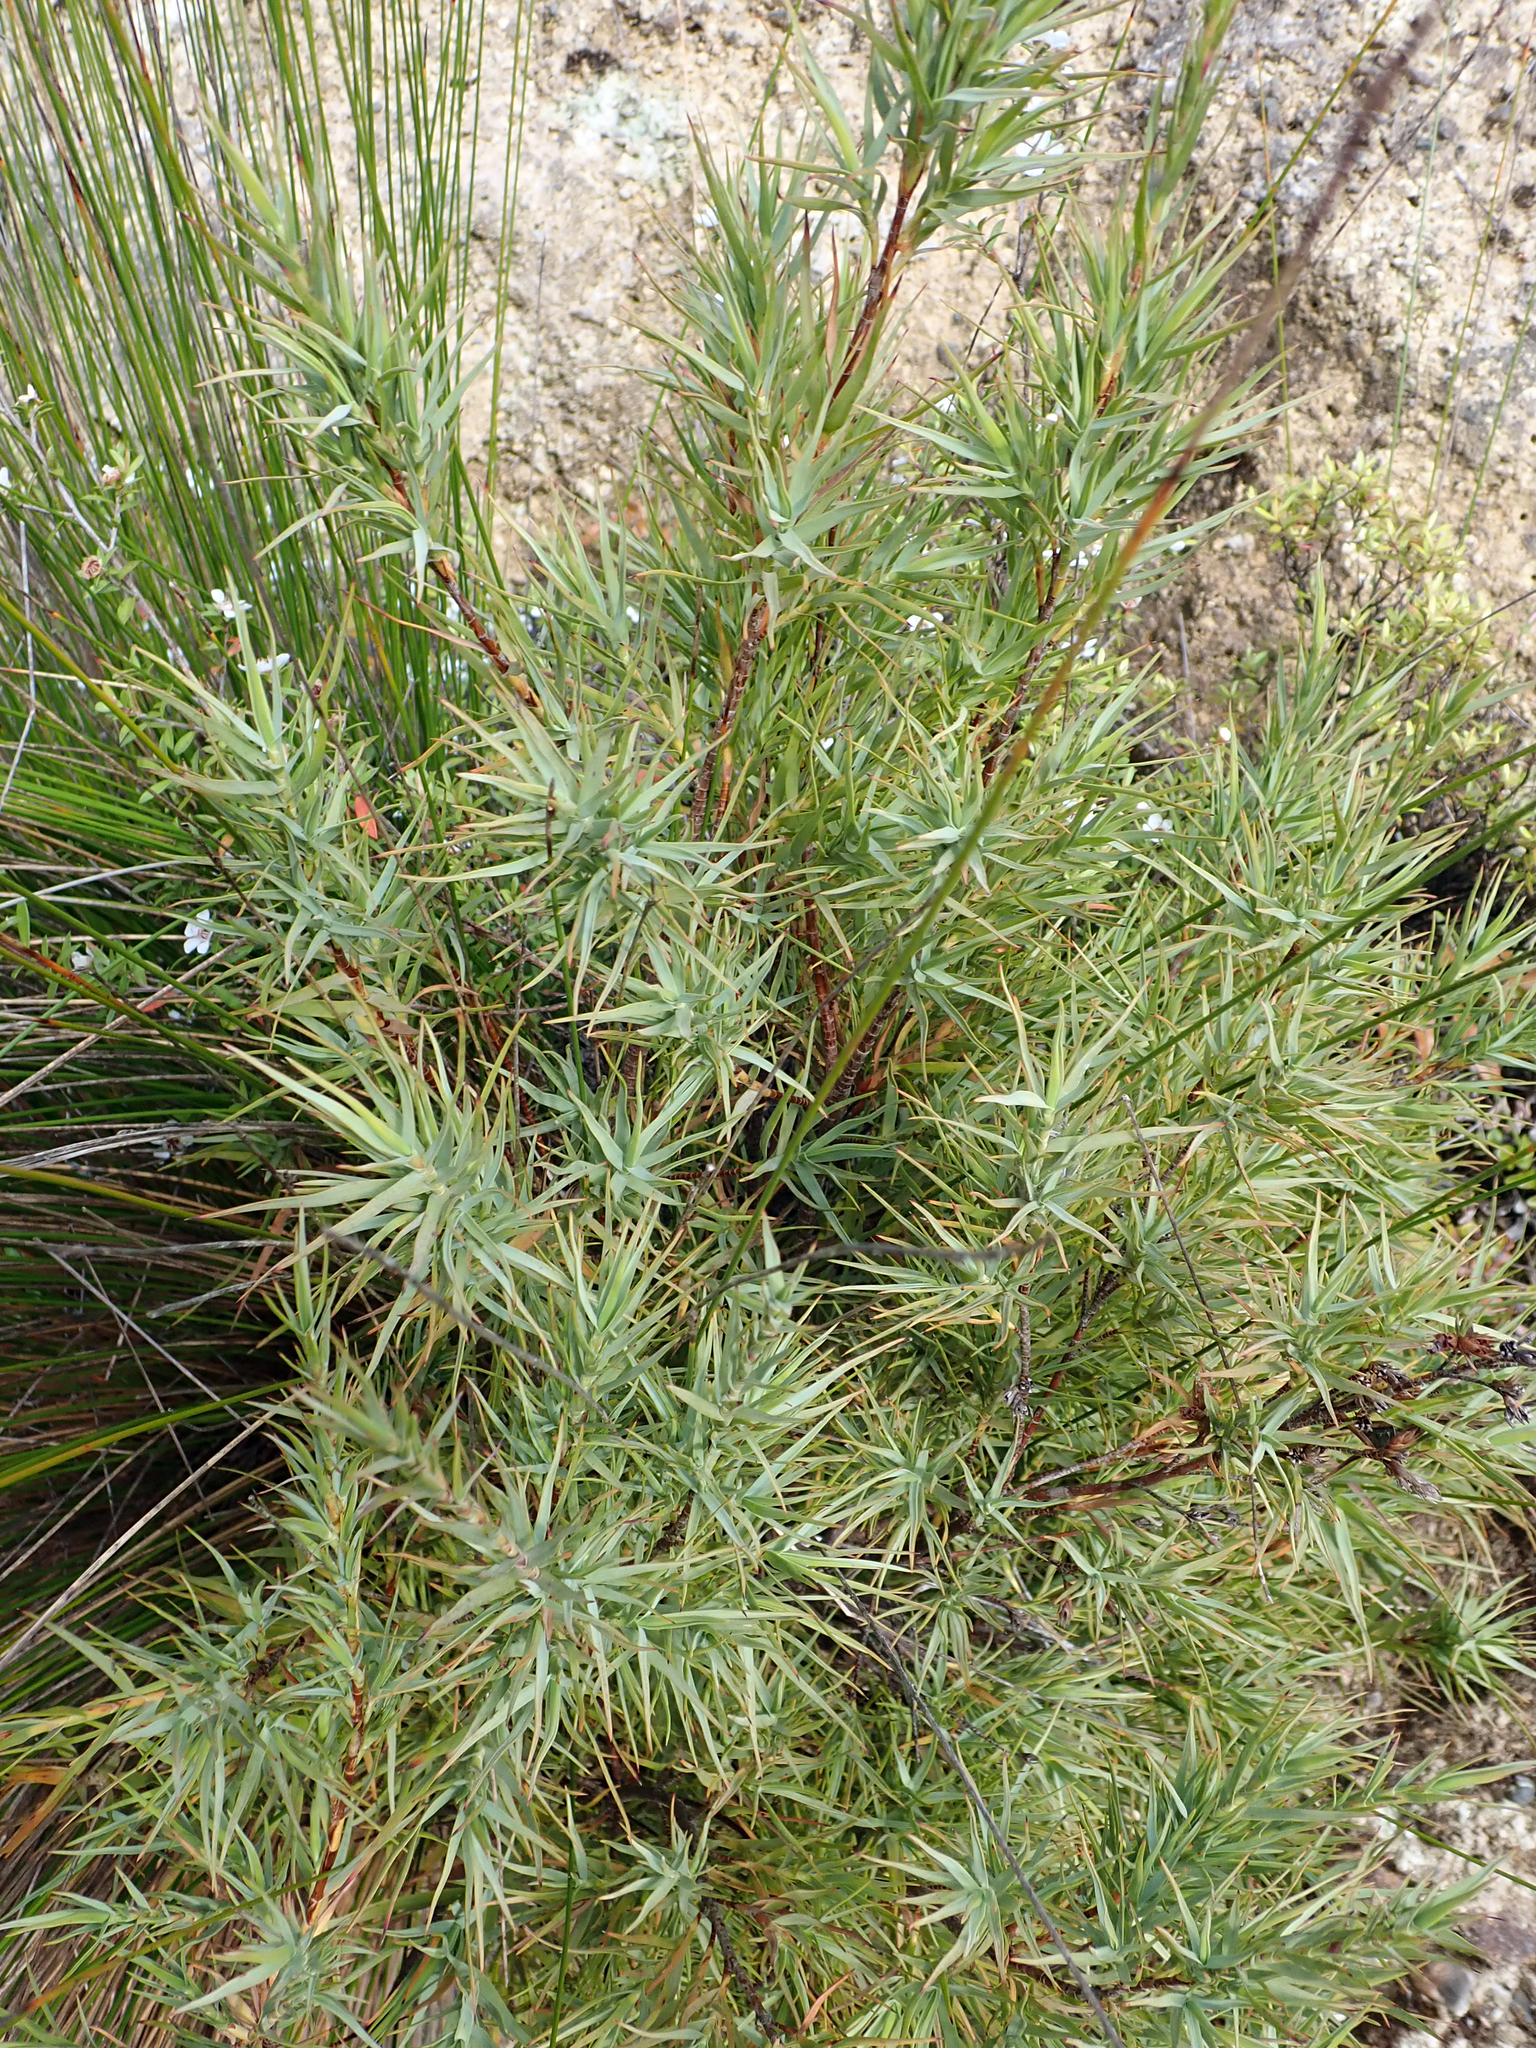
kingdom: Plantae
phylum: Tracheophyta
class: Magnoliopsida
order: Ericales
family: Ericaceae
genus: Dracophyllum
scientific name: Dracophyllum trimorphum
